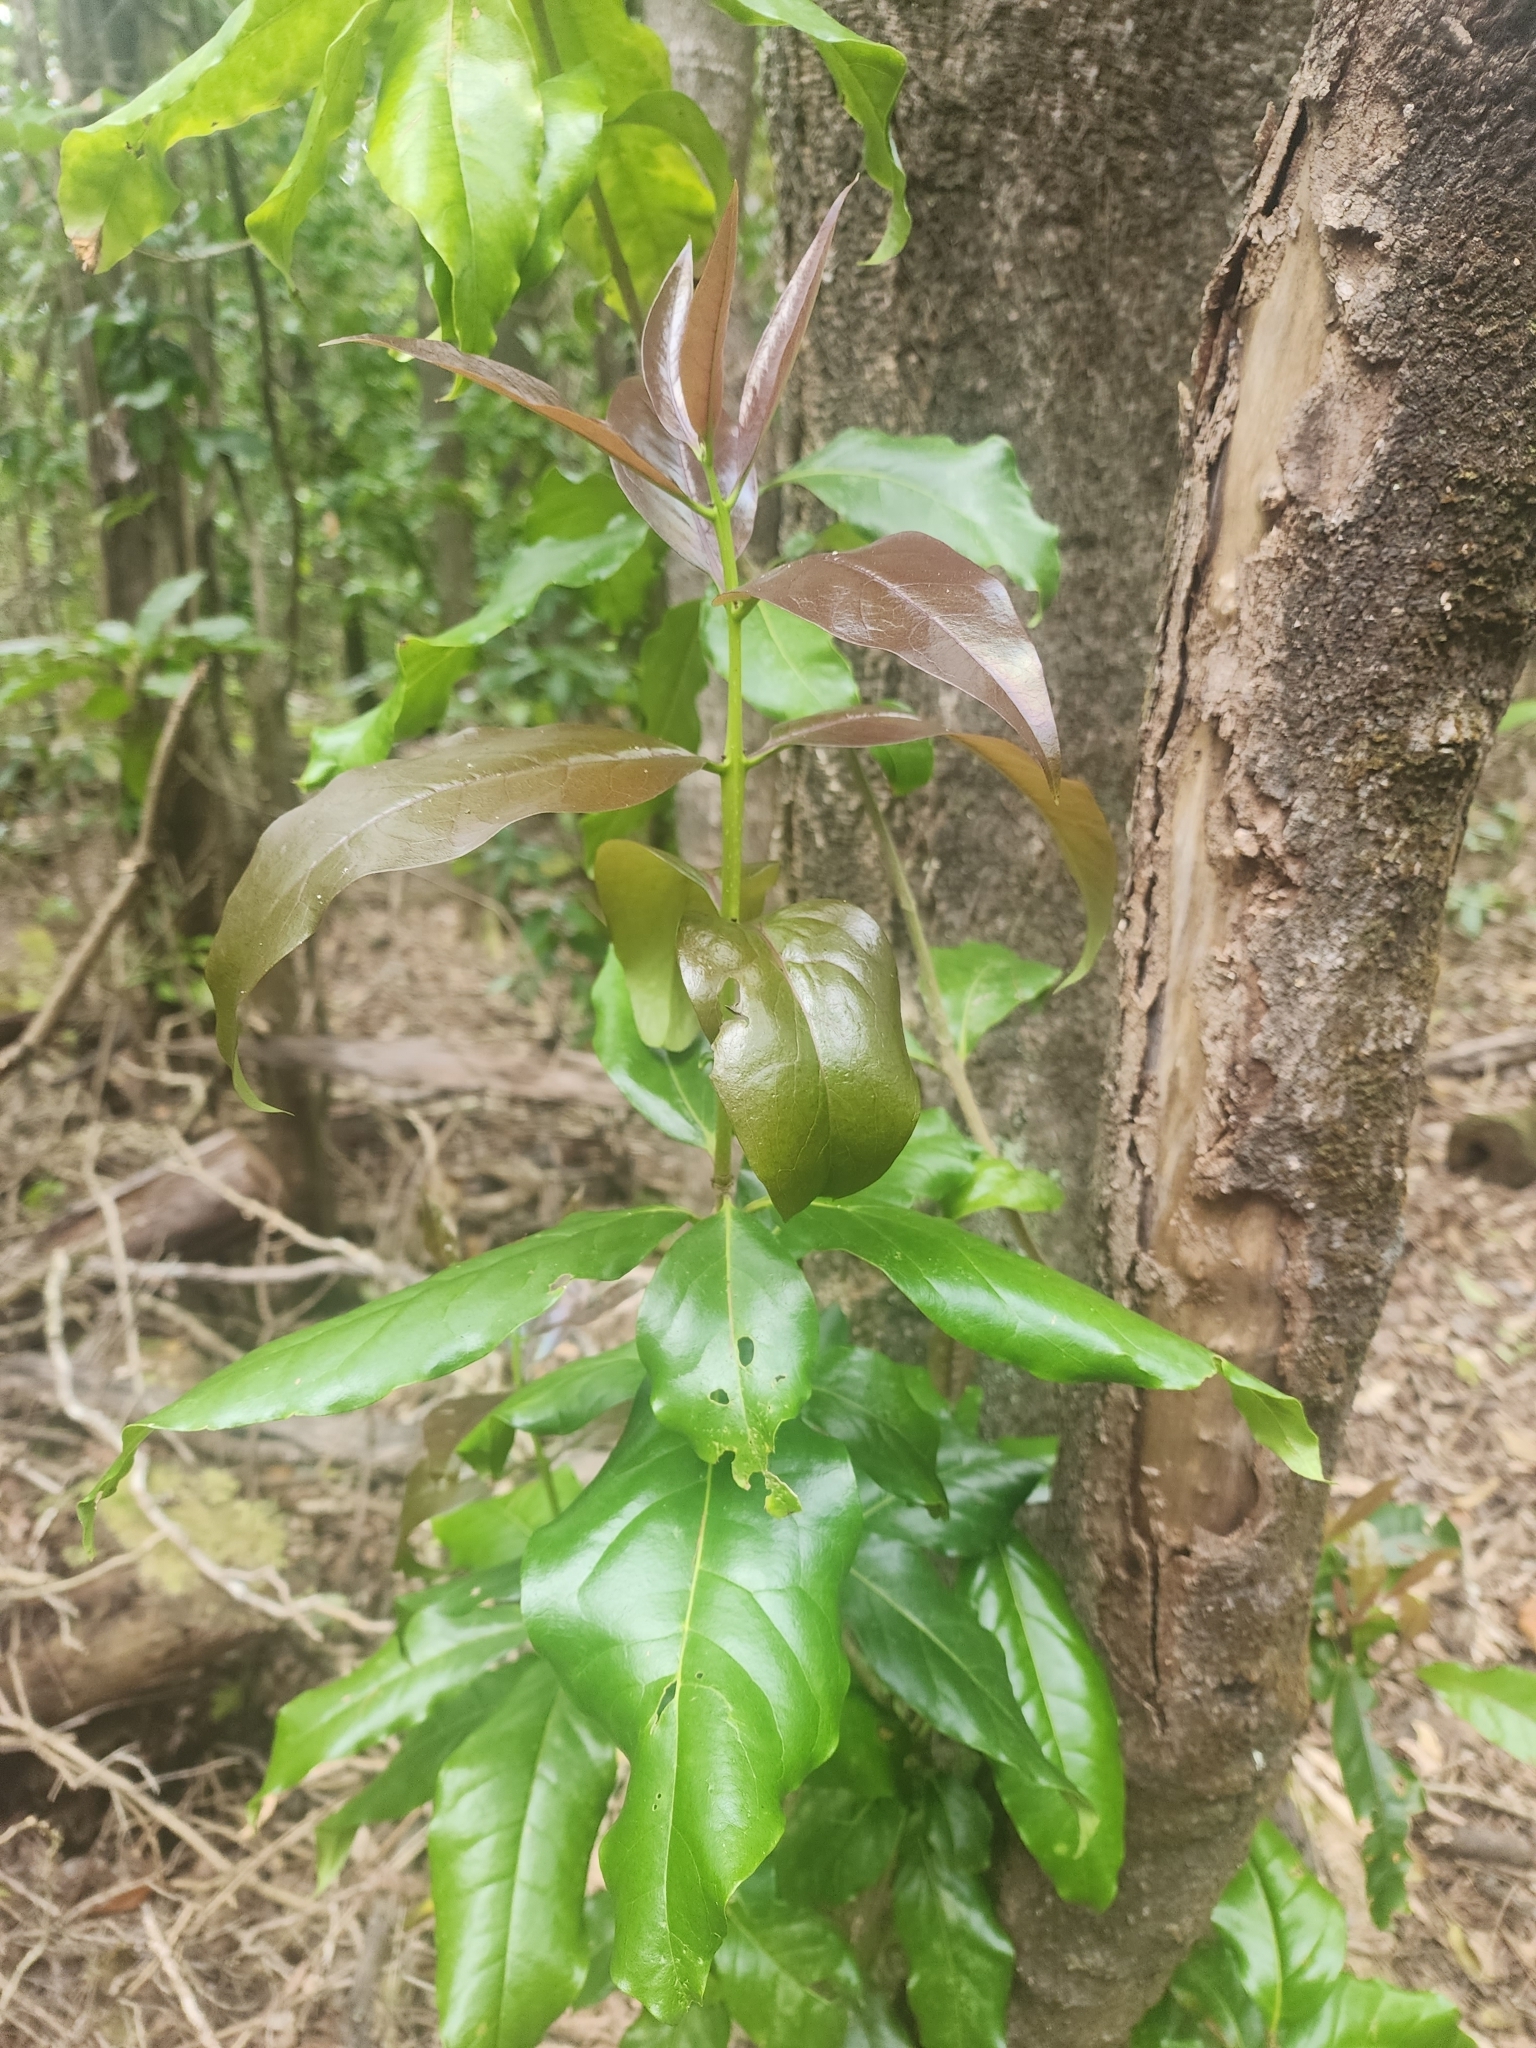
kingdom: Plantae
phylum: Tracheophyta
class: Magnoliopsida
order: Lamiales
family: Oleaceae
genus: Nestegis
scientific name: Nestegis sandwicensis
